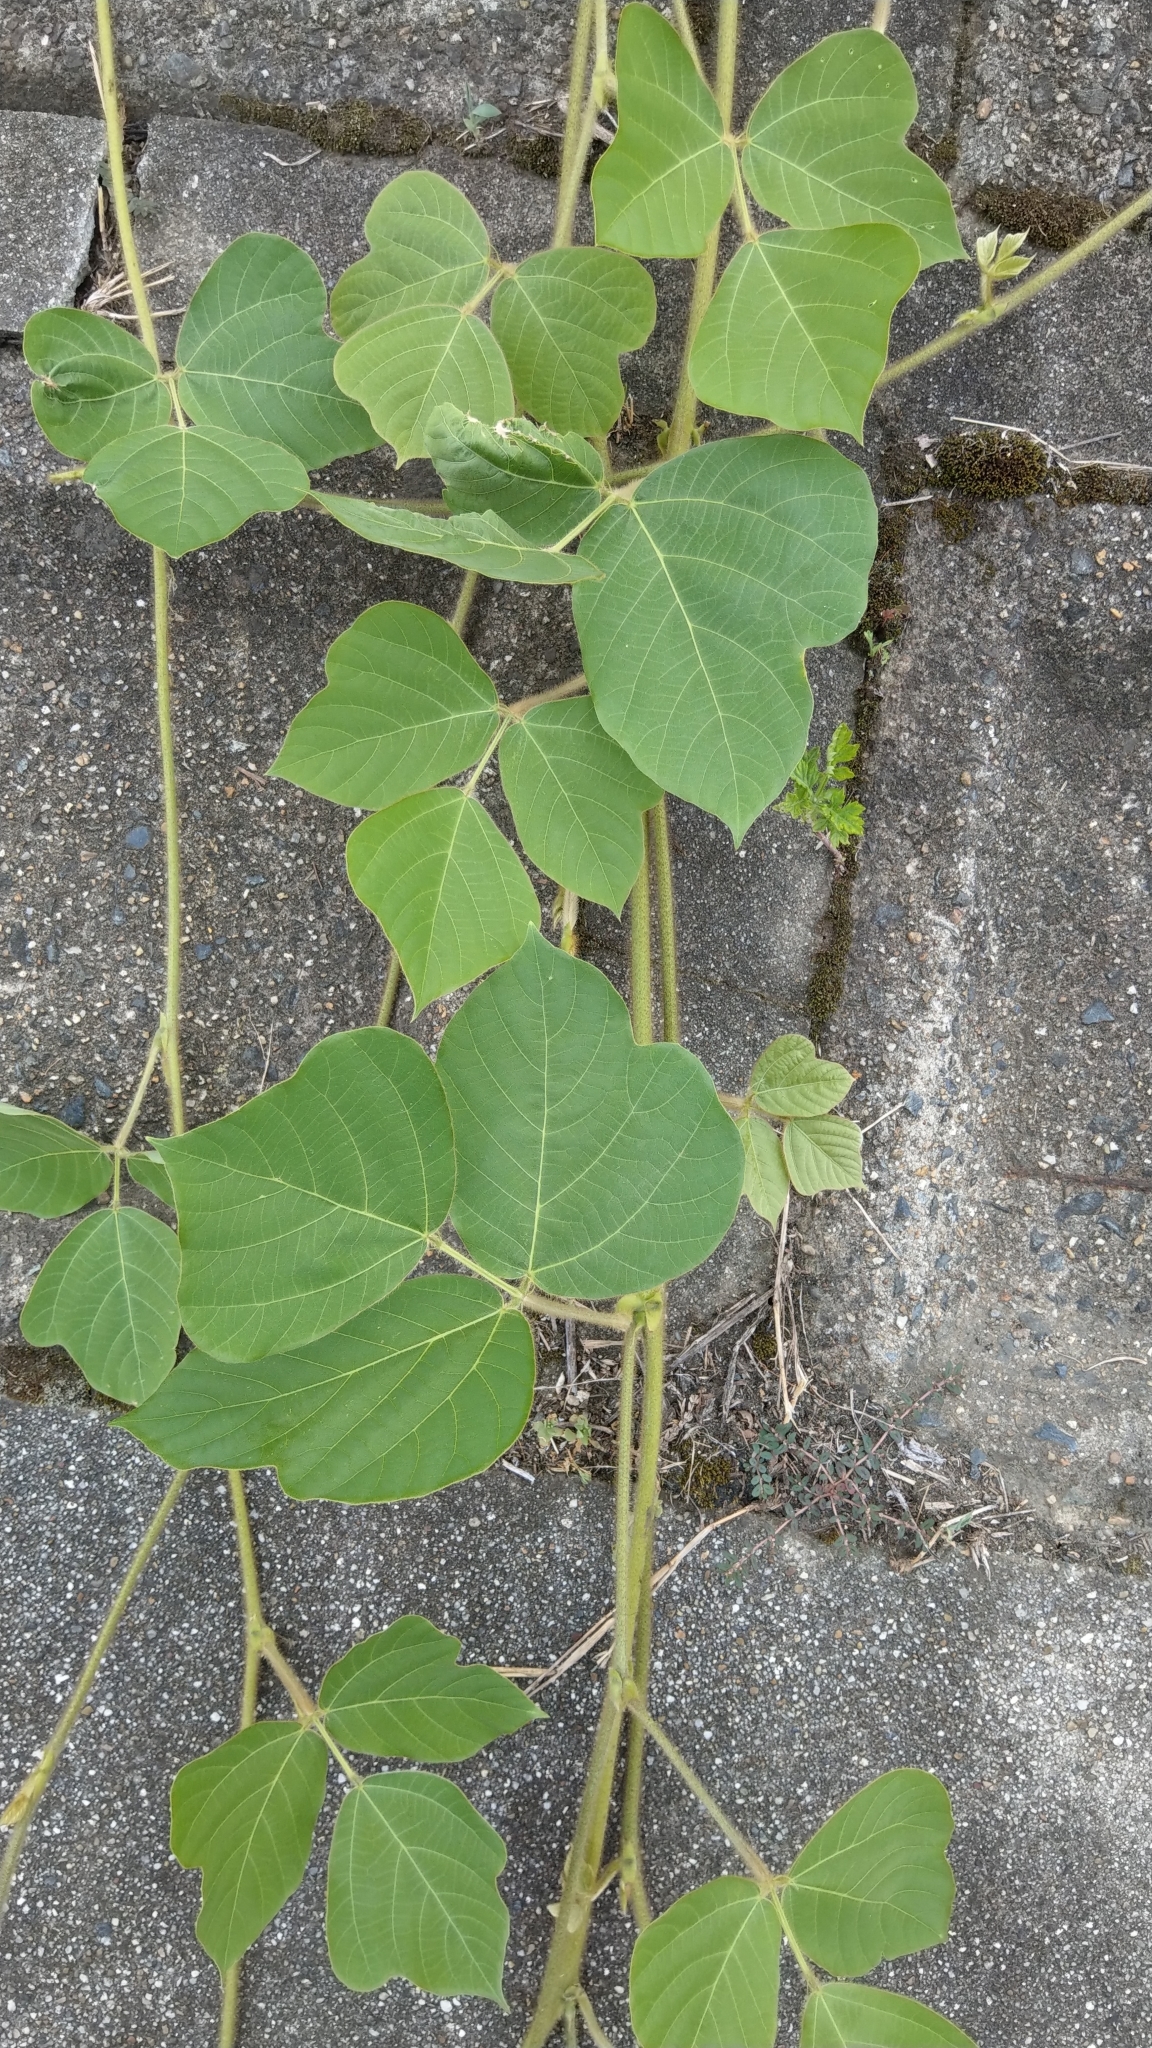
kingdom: Plantae
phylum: Tracheophyta
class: Magnoliopsida
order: Fabales
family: Fabaceae
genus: Pueraria
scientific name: Pueraria montana
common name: Kudzu
